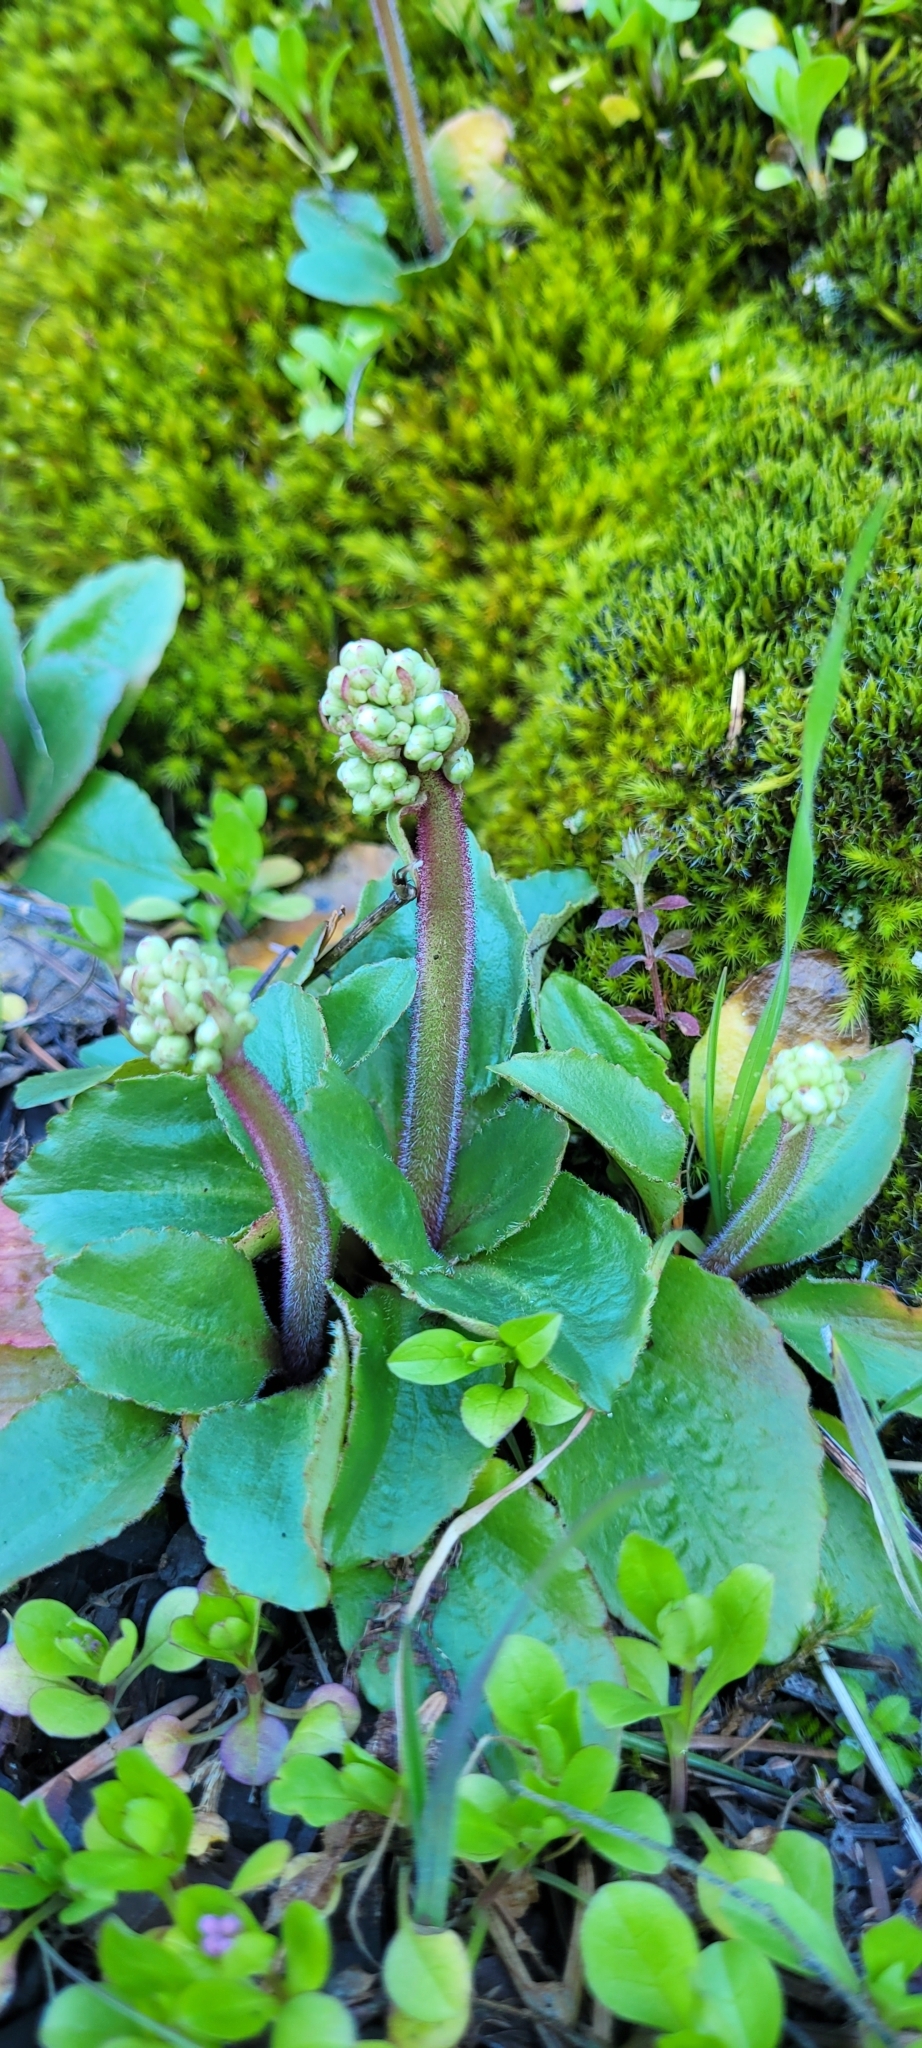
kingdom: Plantae
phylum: Tracheophyta
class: Magnoliopsida
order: Saxifragales
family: Saxifragaceae
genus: Micranthes
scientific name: Micranthes integrifolia
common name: Wholeleaf saxifrage
